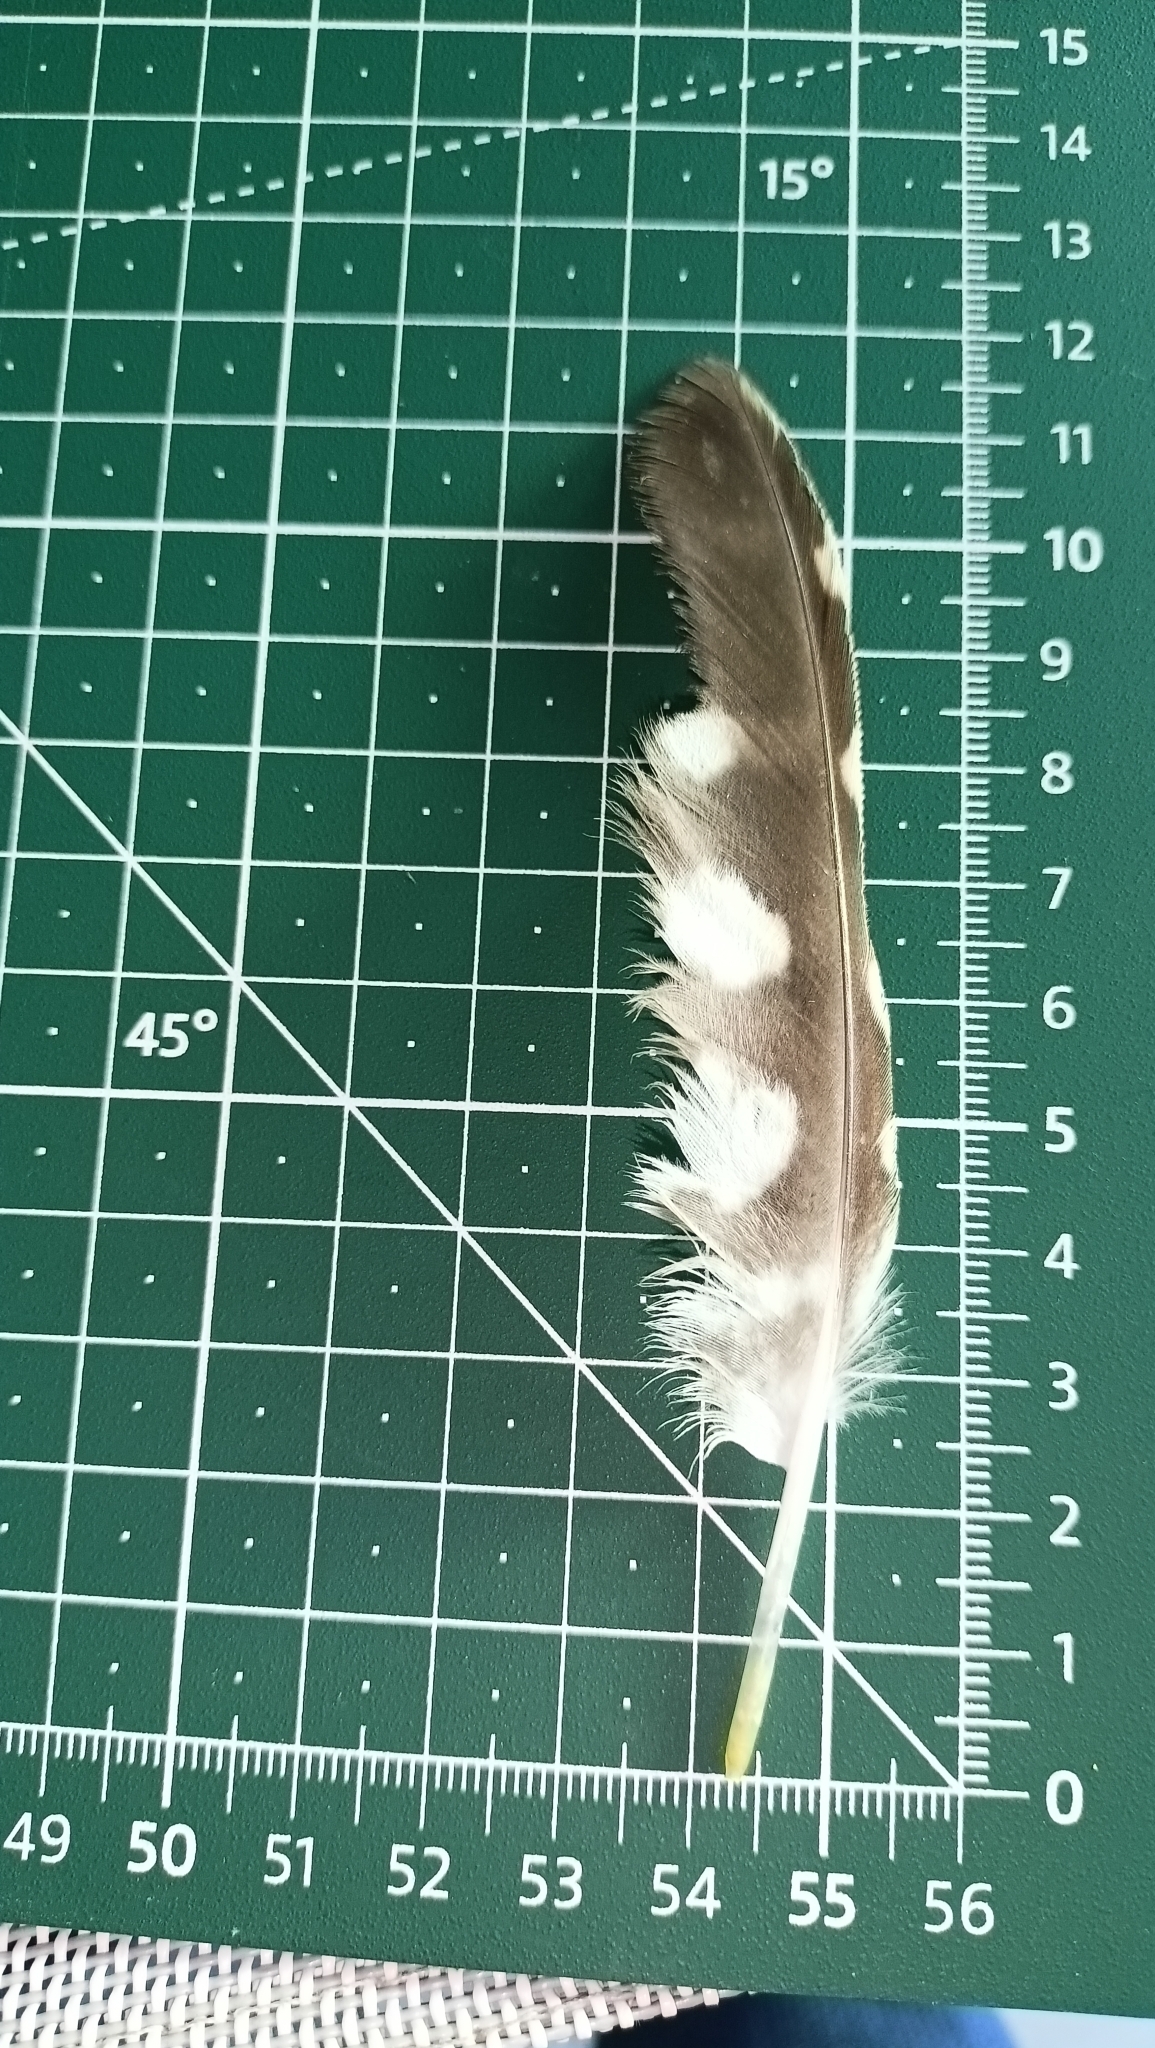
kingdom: Animalia
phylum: Chordata
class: Aves
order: Strigiformes
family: Strigidae
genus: Athene
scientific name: Athene noctua
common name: Little owl
